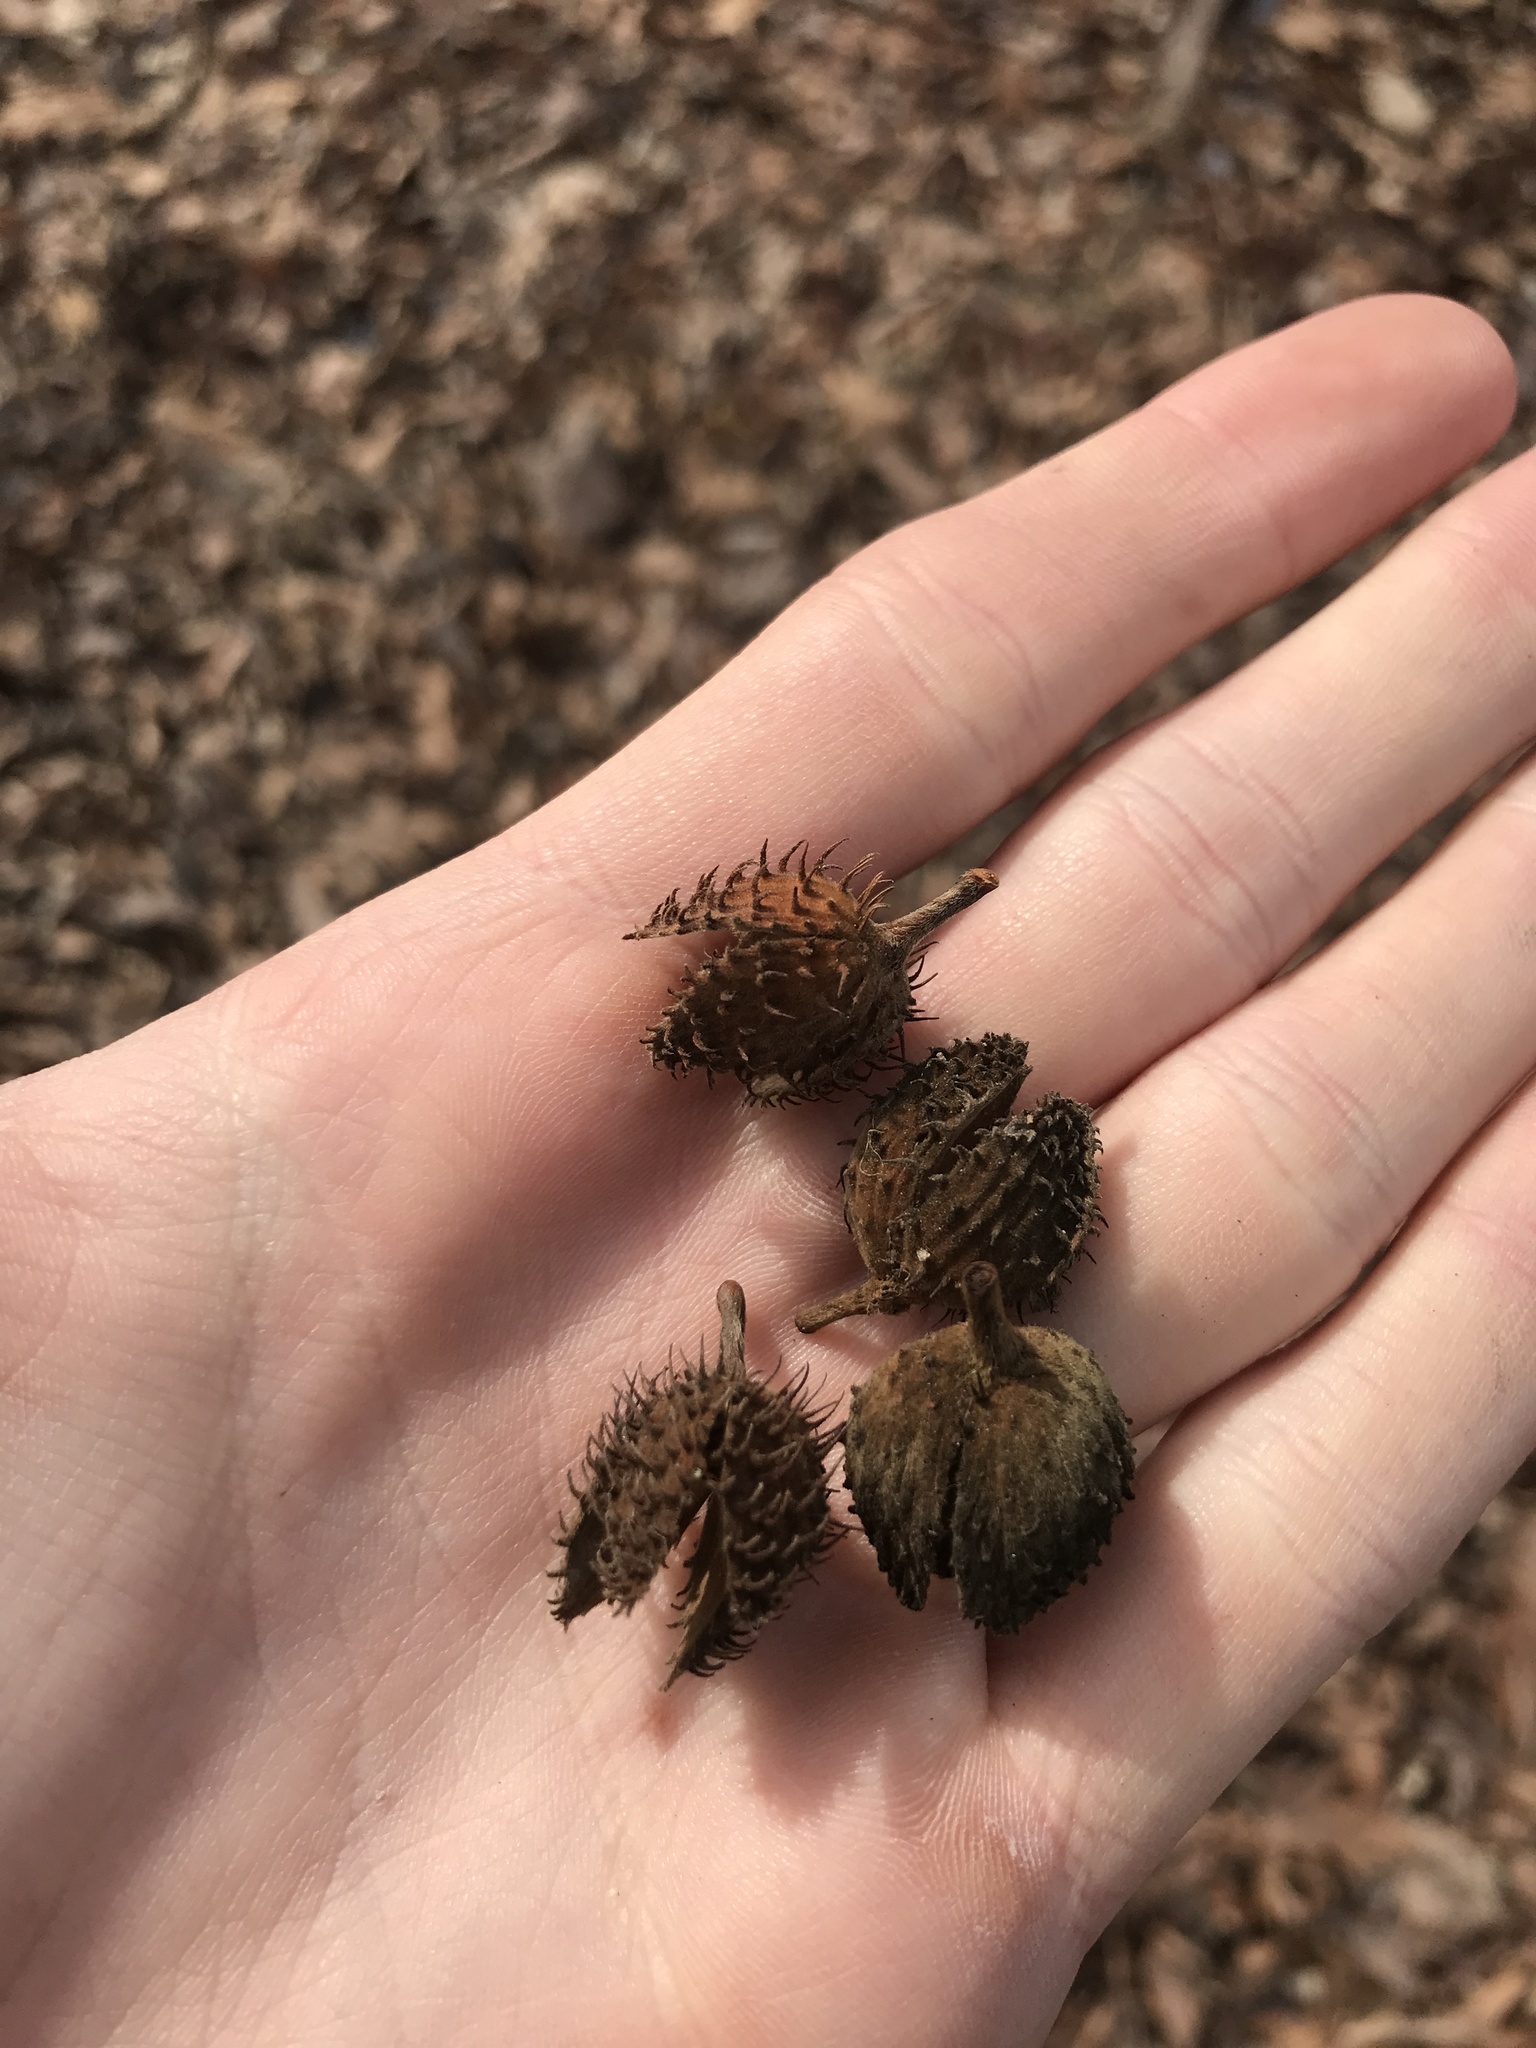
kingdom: Plantae
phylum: Tracheophyta
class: Magnoliopsida
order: Fagales
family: Fagaceae
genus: Fagus
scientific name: Fagus grandifolia
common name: American beech
